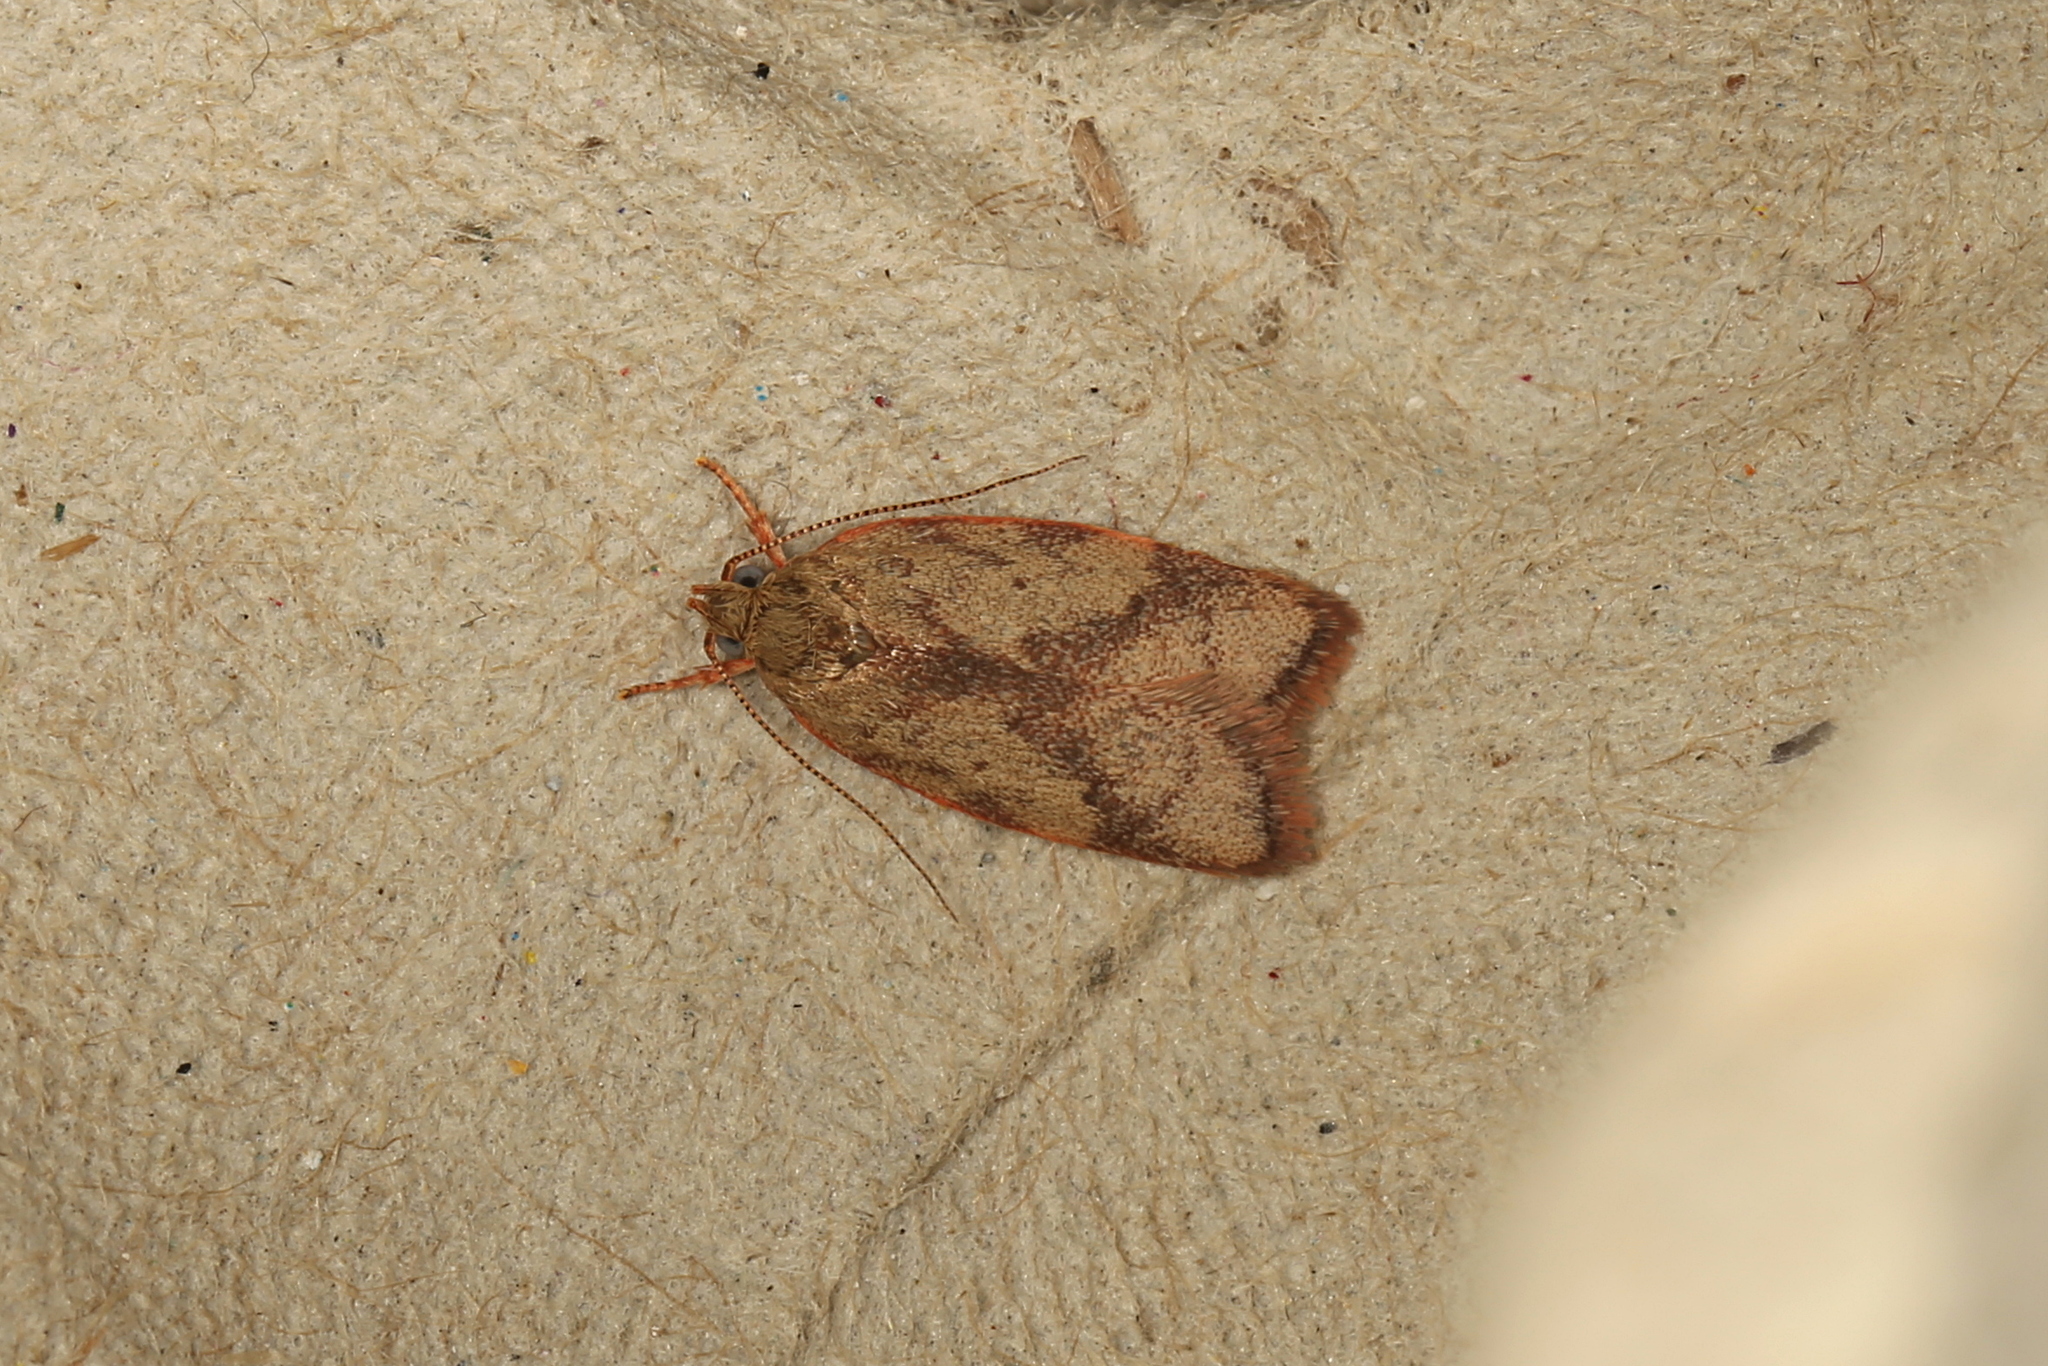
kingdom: Animalia
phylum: Arthropoda
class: Insecta
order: Lepidoptera
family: Oecophoridae
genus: Garrha
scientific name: Garrha phoenopis
